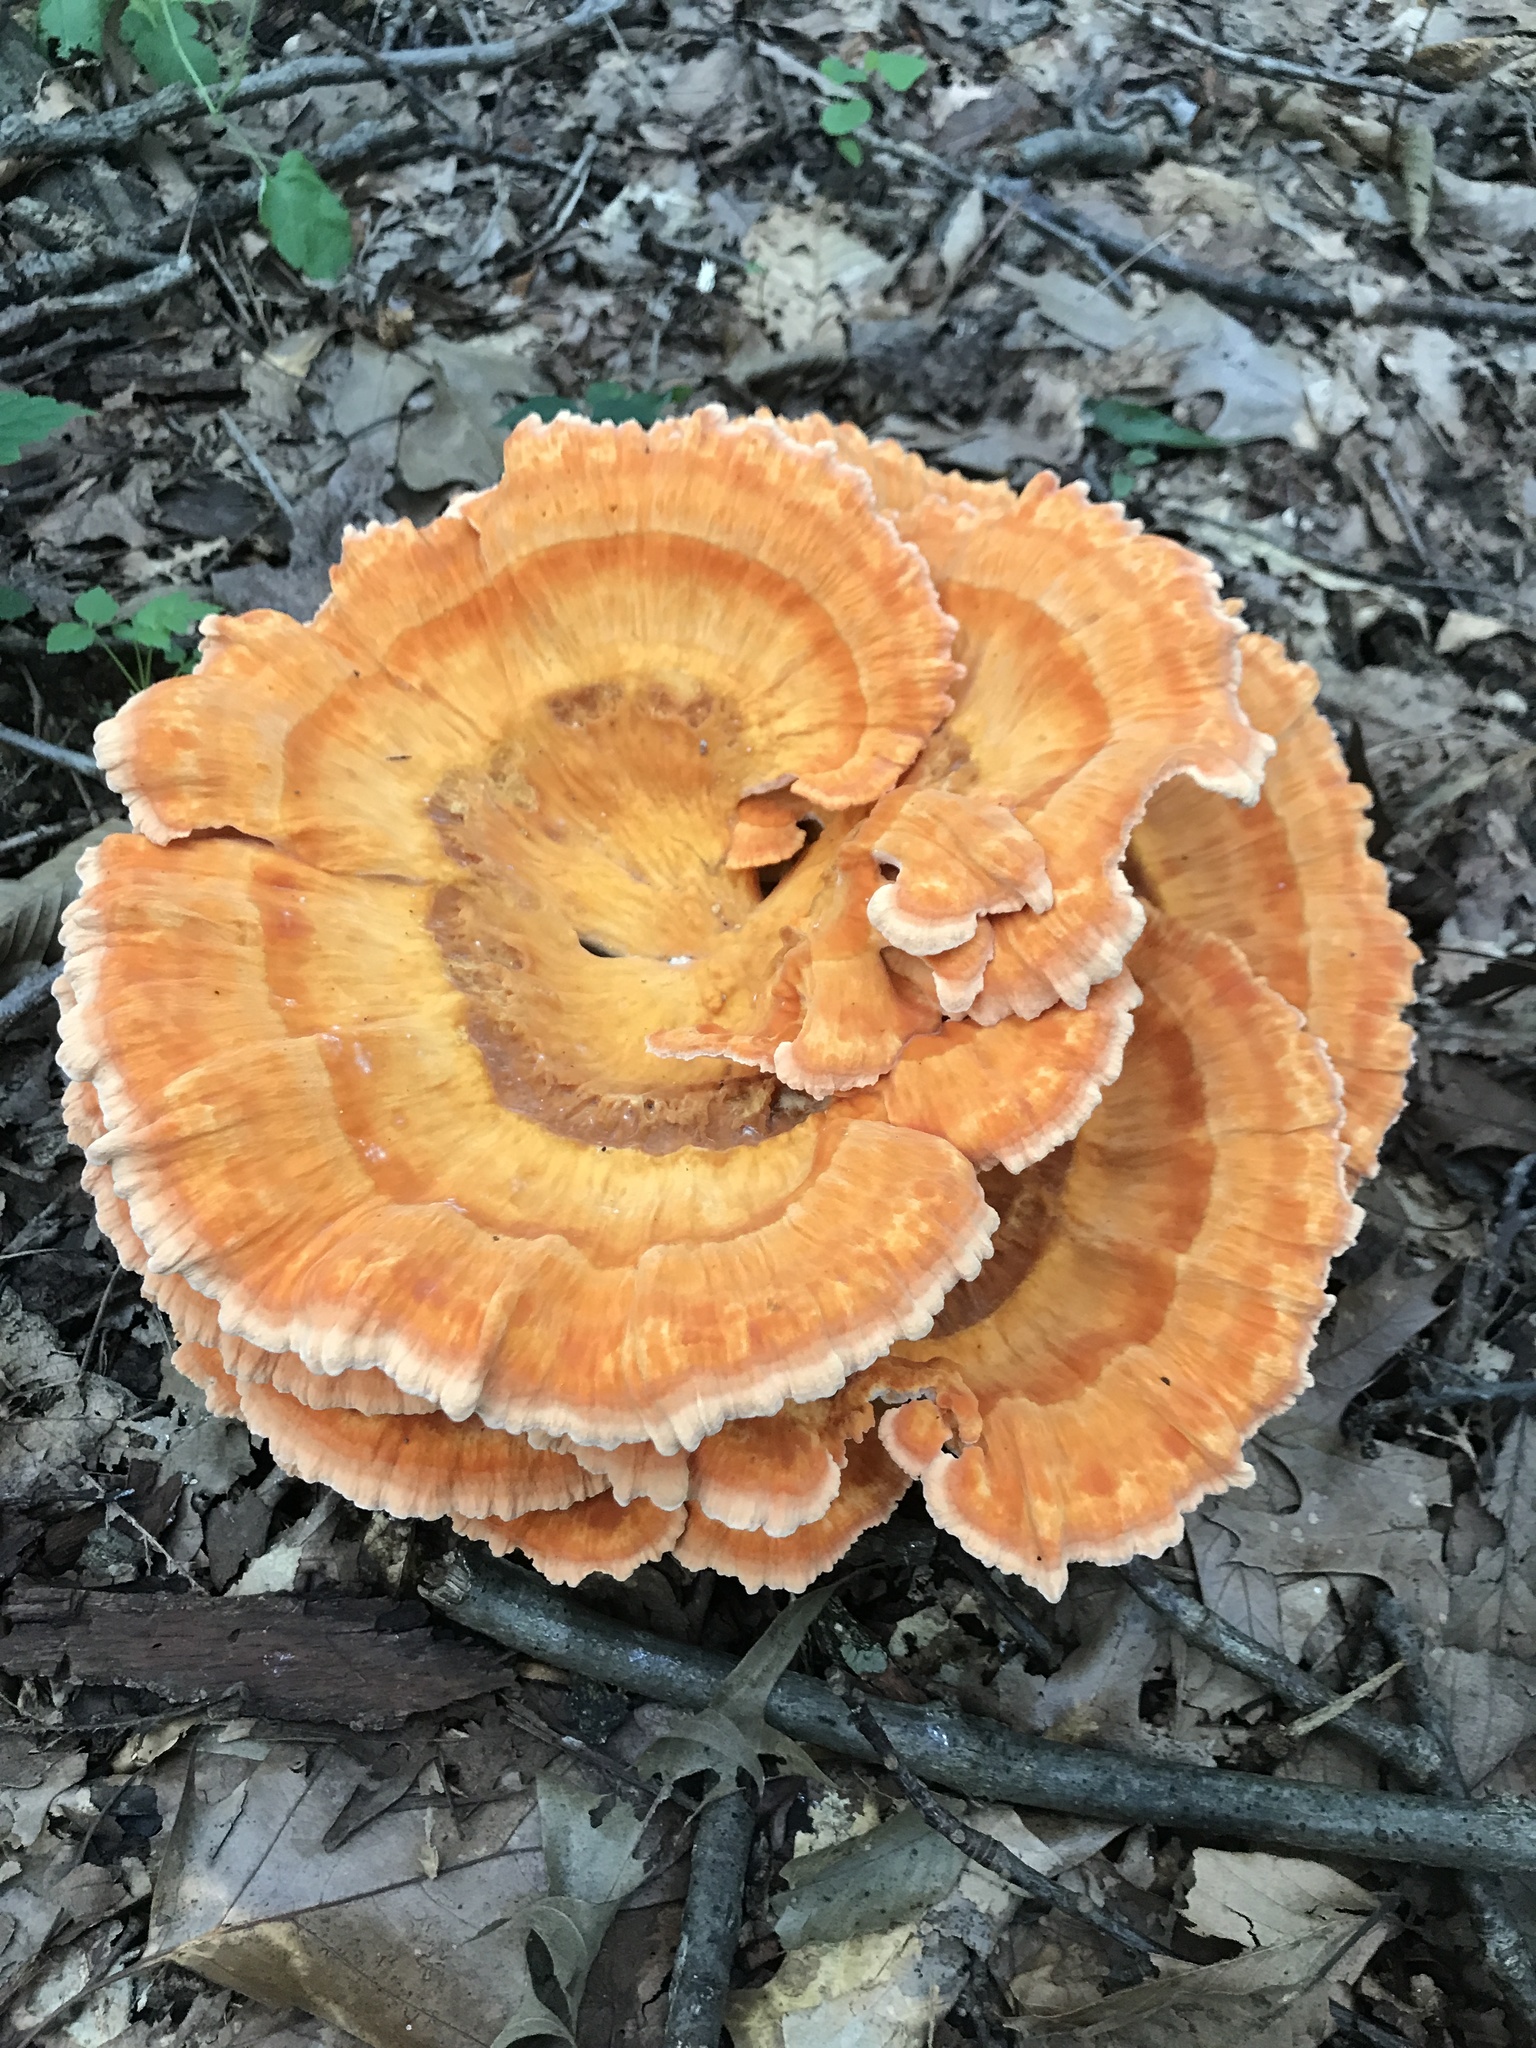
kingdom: Fungi
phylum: Basidiomycota
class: Agaricomycetes
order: Polyporales
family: Laetiporaceae
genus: Laetiporus
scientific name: Laetiporus sulphureus
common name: Chicken of the woods
